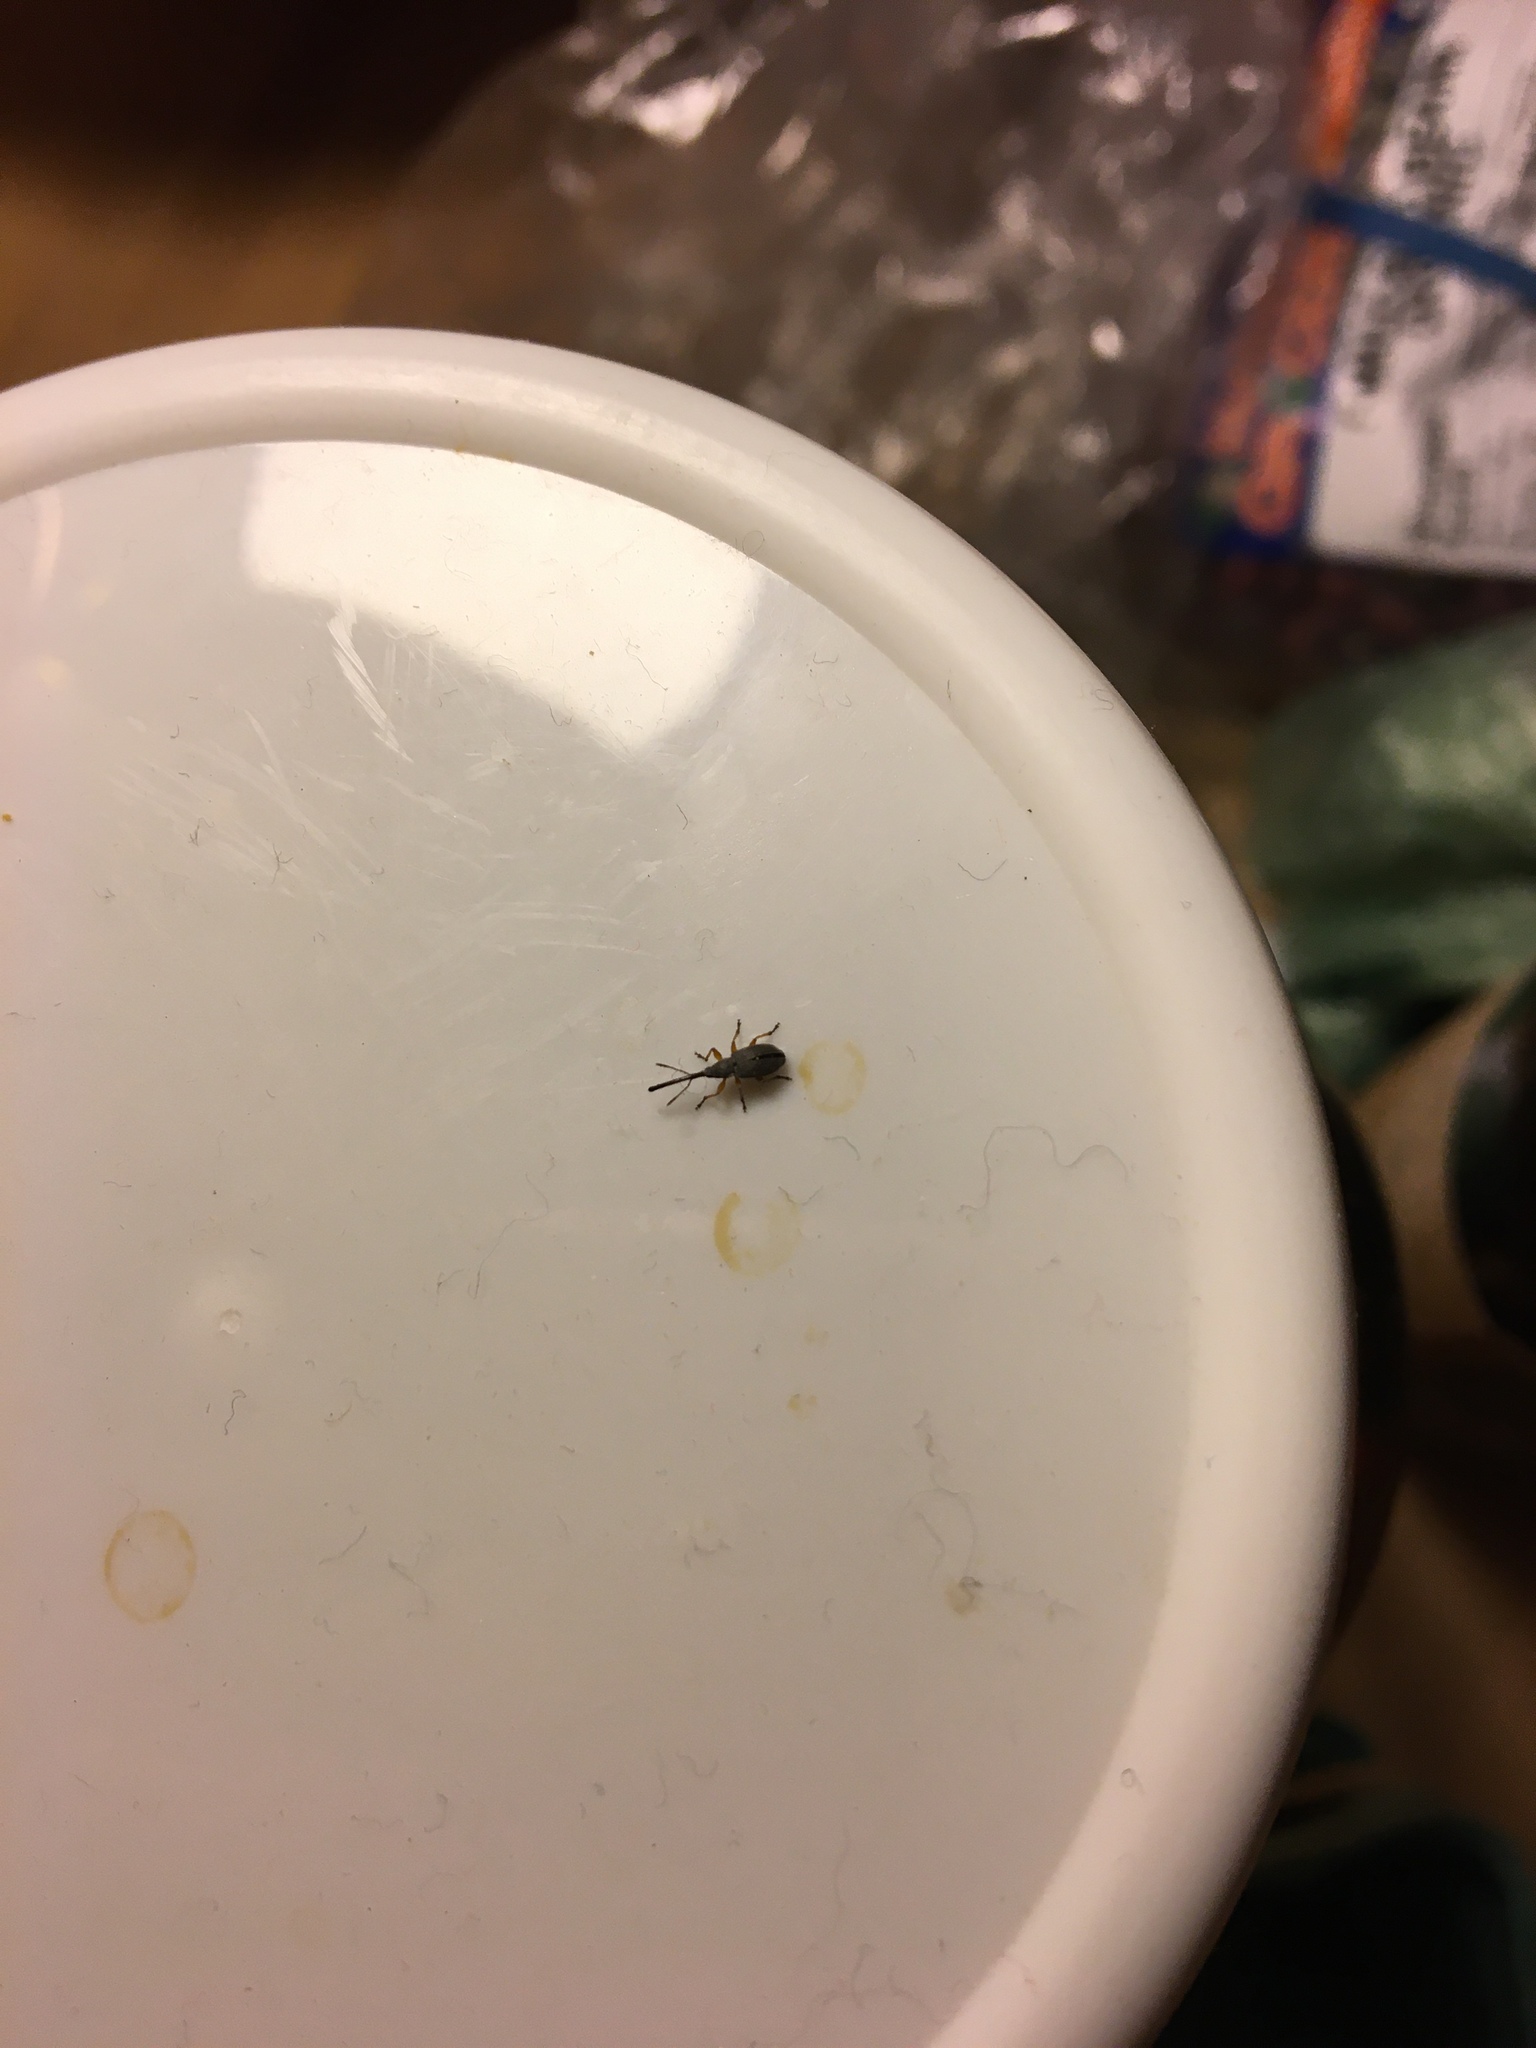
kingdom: Animalia
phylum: Arthropoda
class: Insecta
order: Coleoptera
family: Brentidae
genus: Rhopalapion
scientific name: Rhopalapion longirostre
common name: Hollyhock weevil
